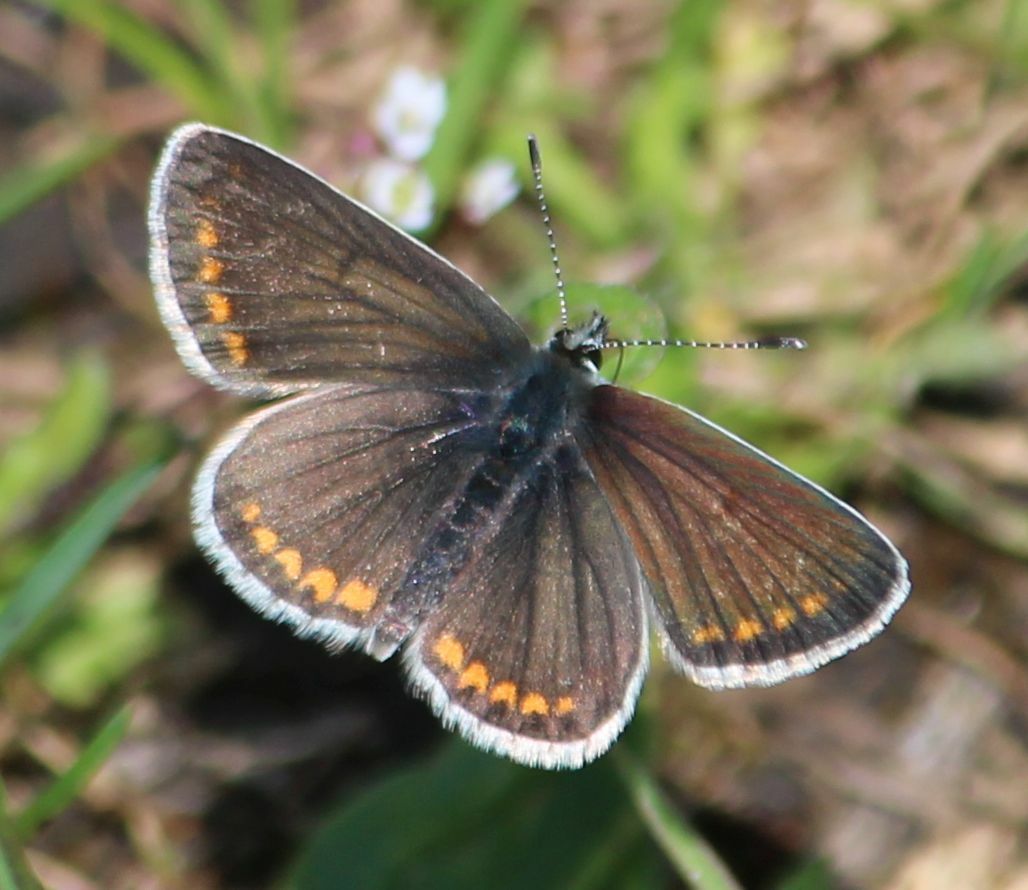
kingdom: Animalia
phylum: Arthropoda
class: Insecta
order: Lepidoptera
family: Lycaenidae
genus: Polyommatus
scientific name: Polyommatus icarus
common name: Common blue
